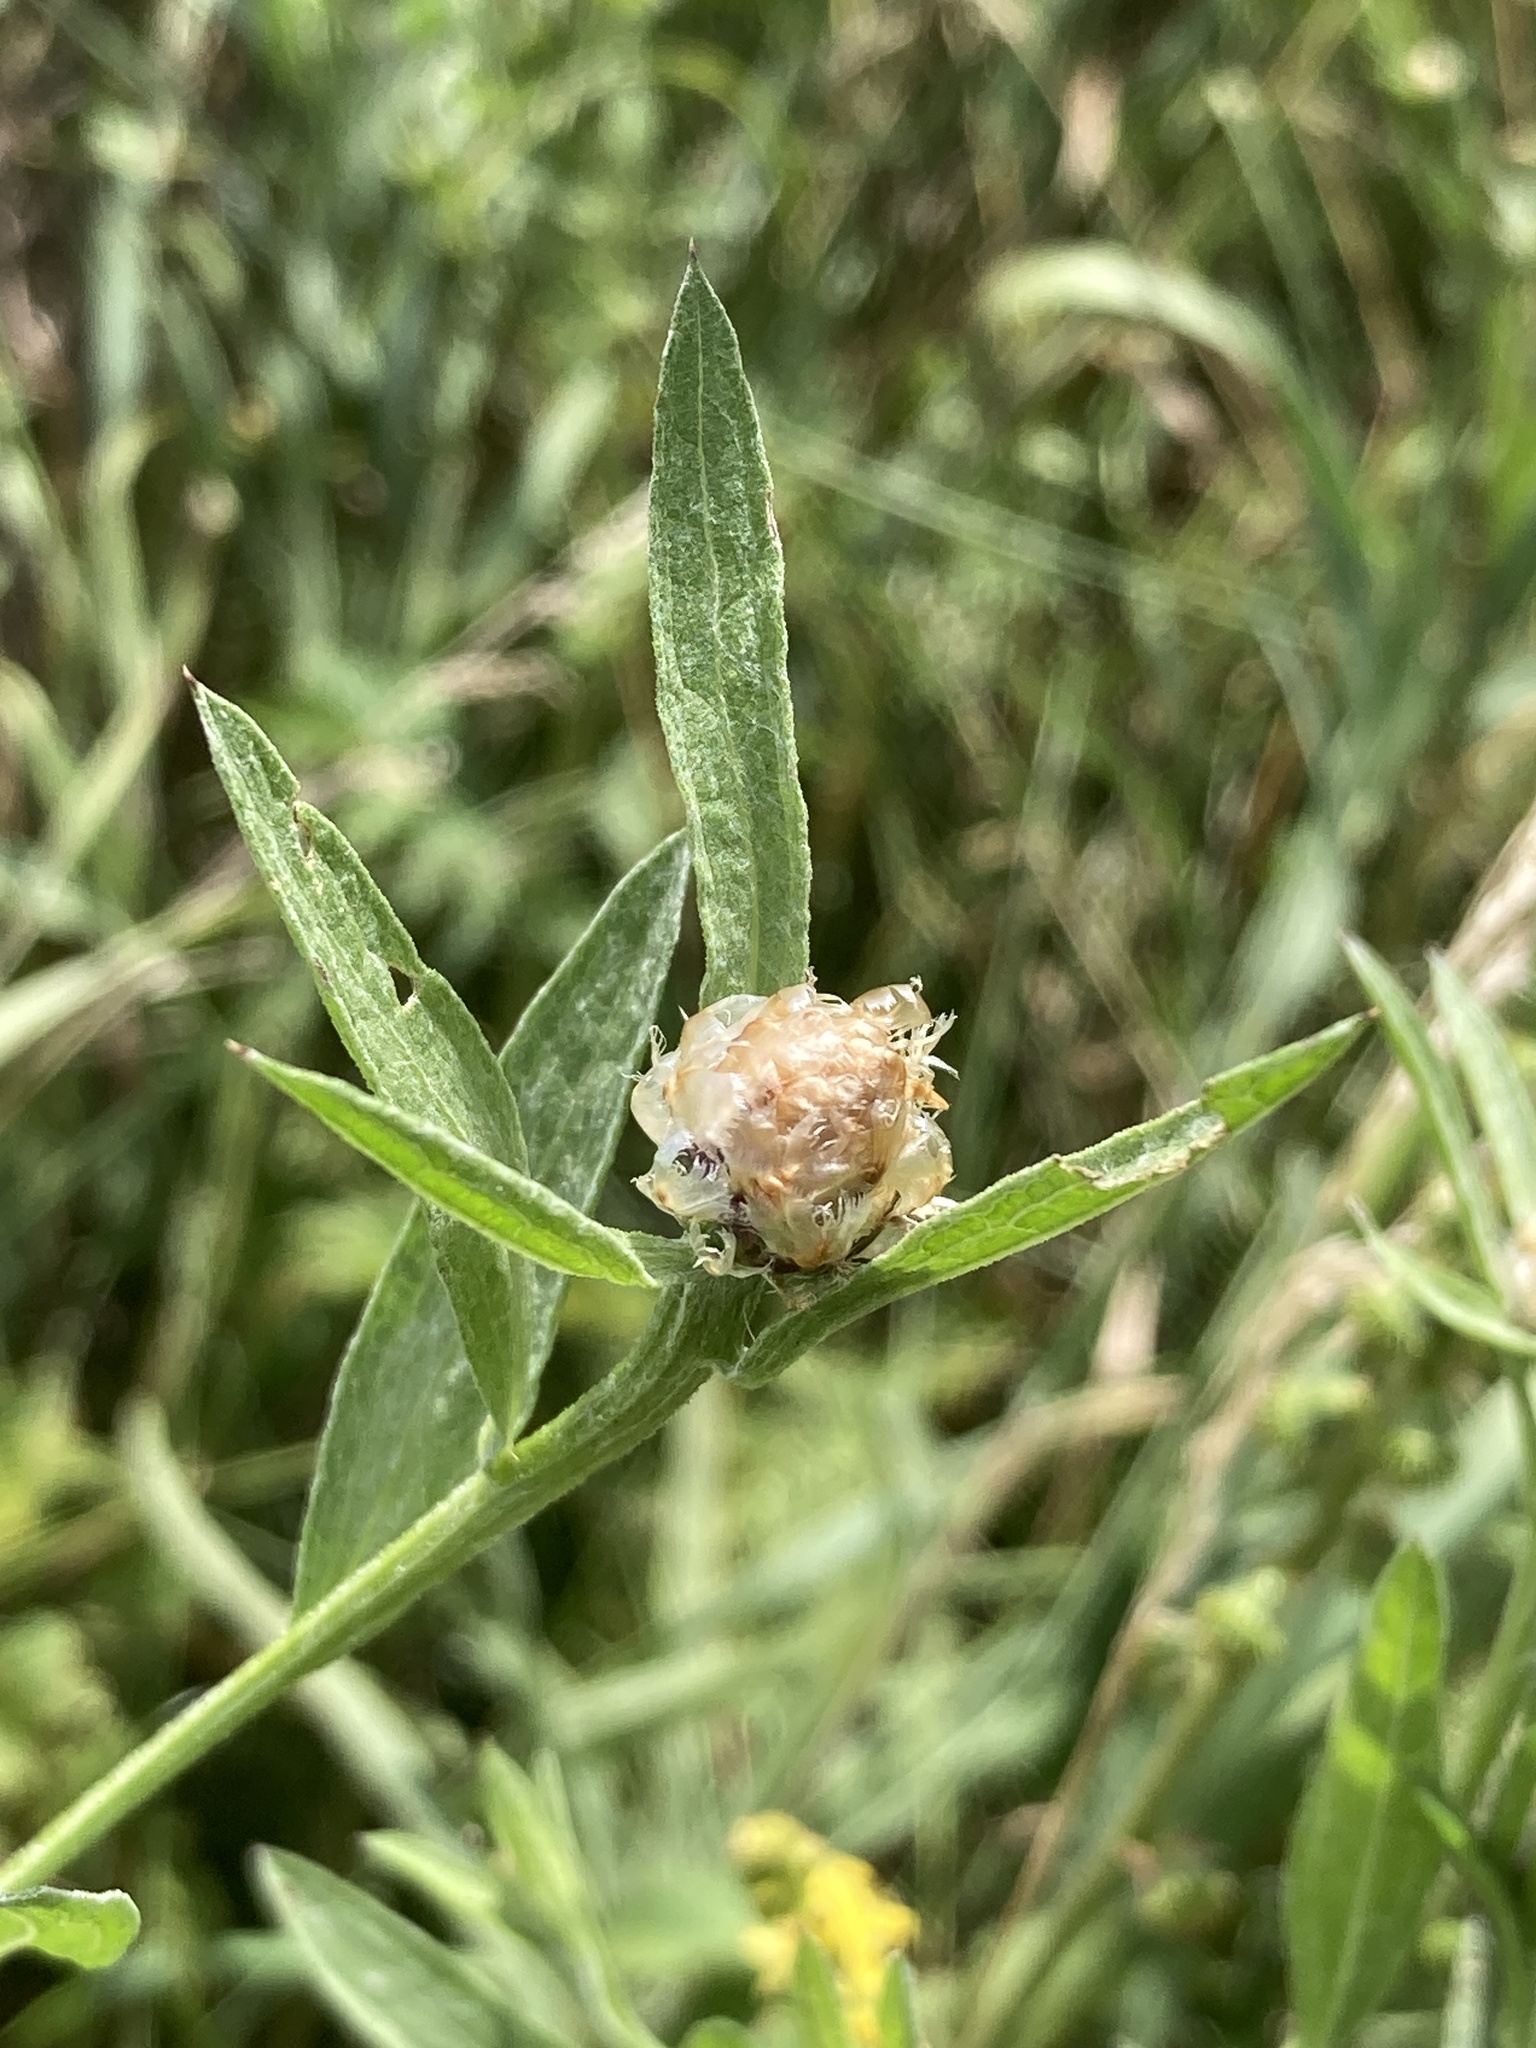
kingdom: Plantae
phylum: Tracheophyta
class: Magnoliopsida
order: Asterales
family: Asteraceae
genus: Centaurea
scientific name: Centaurea jacea
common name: Brown knapweed
